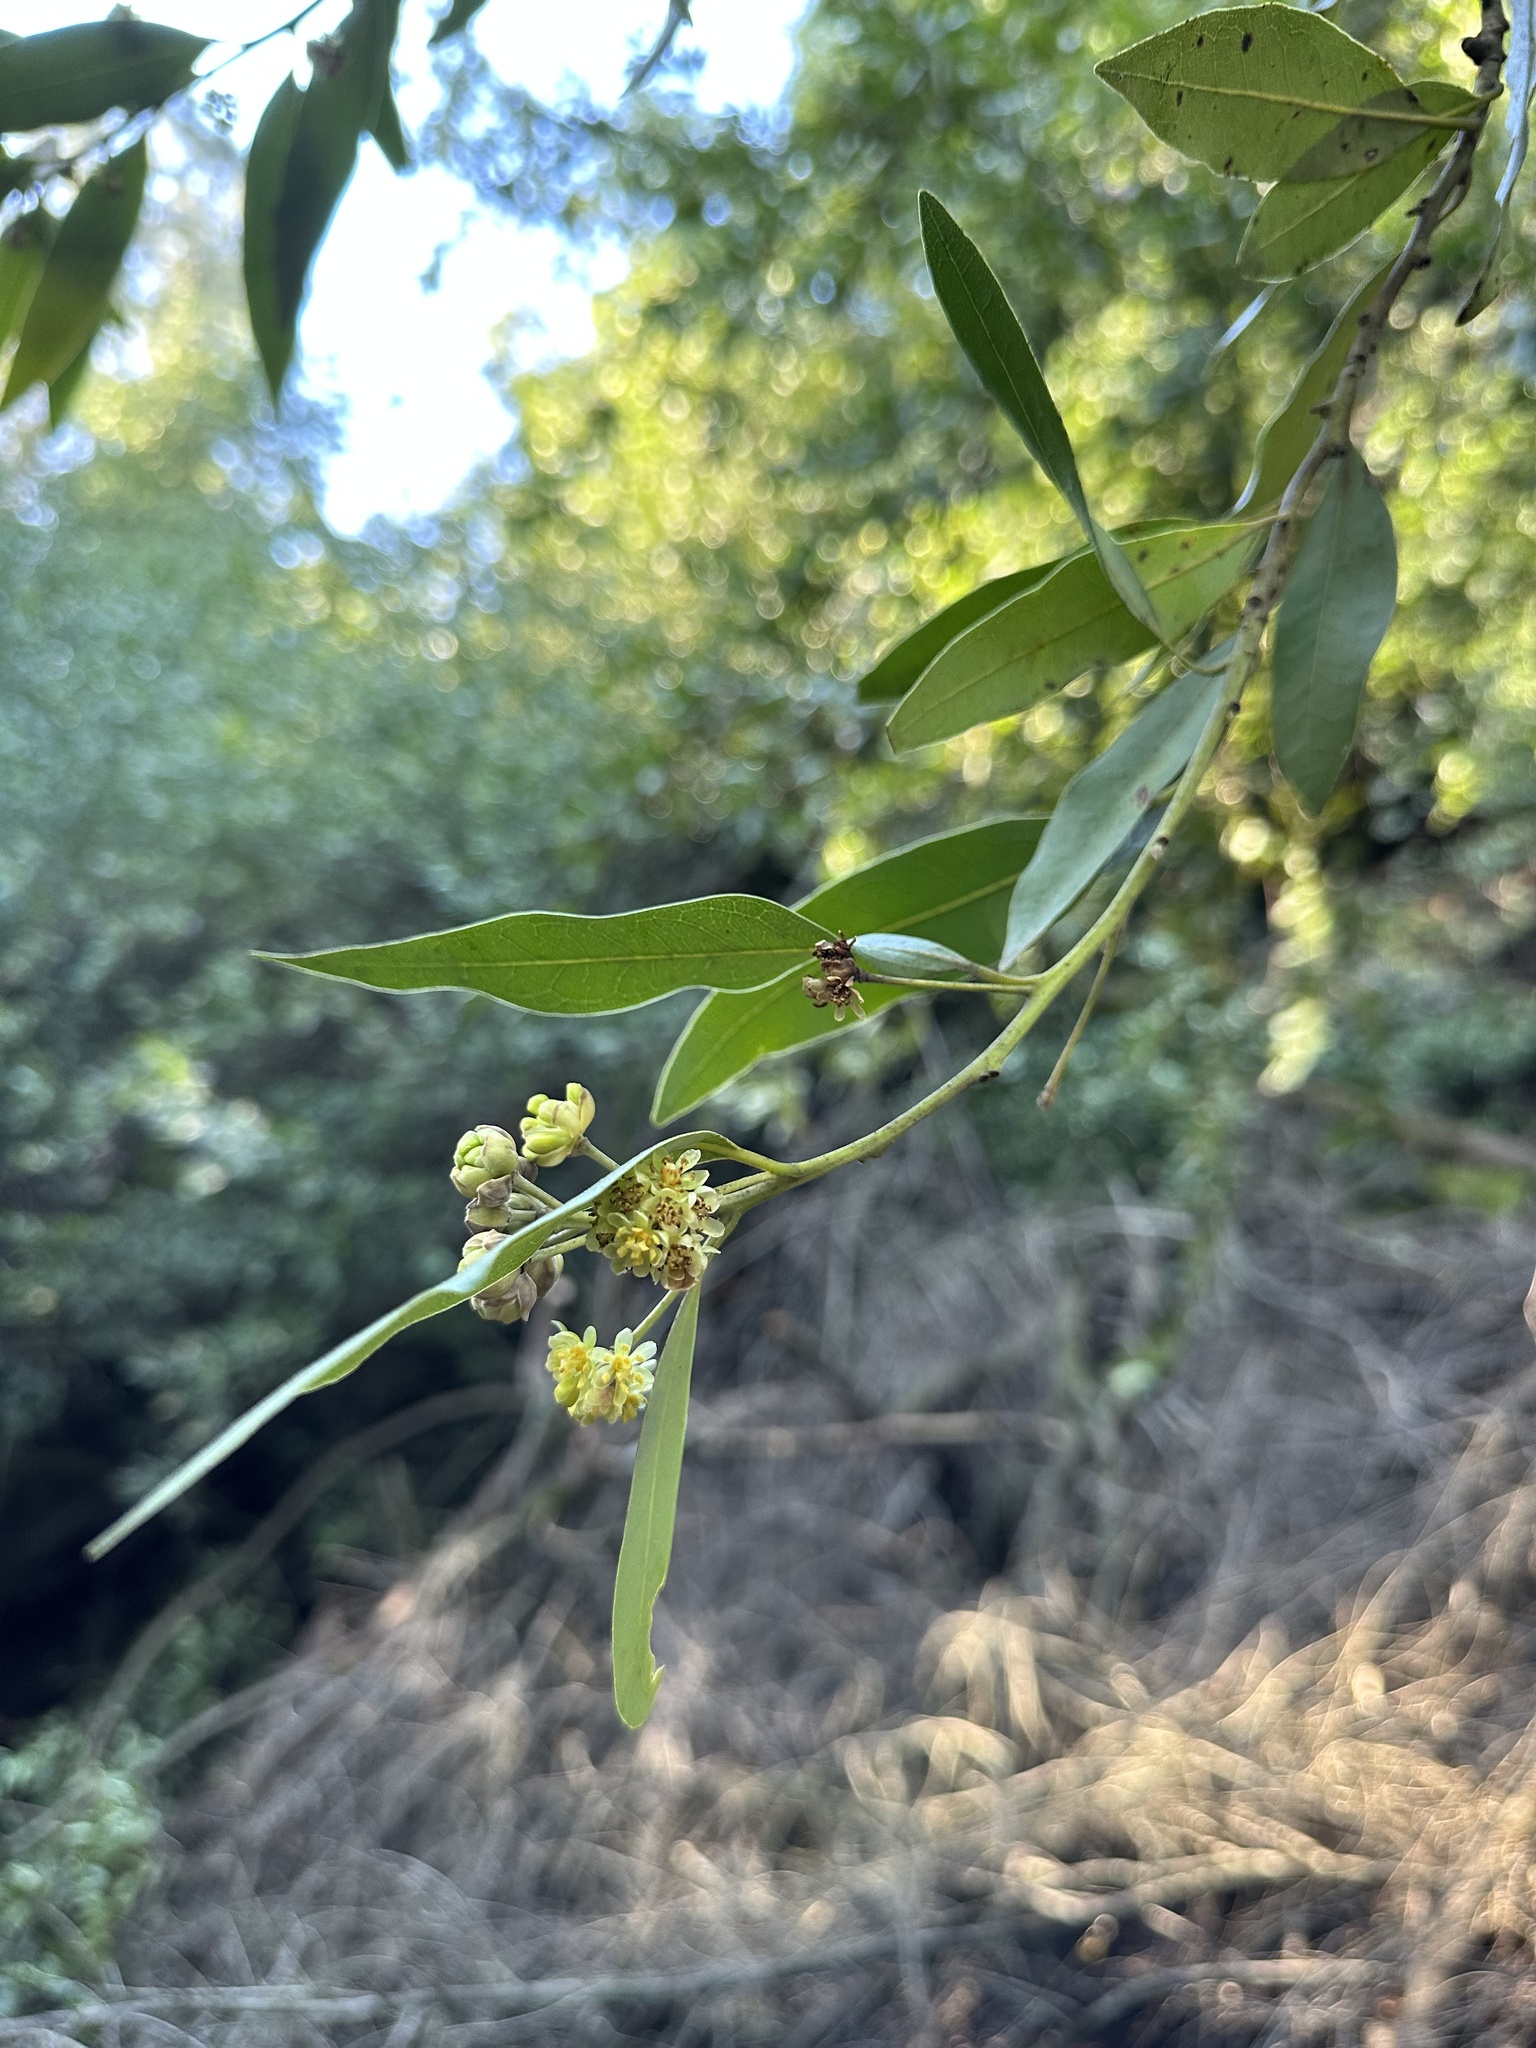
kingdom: Plantae
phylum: Tracheophyta
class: Magnoliopsida
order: Laurales
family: Lauraceae
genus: Umbellularia
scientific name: Umbellularia californica
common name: California bay
